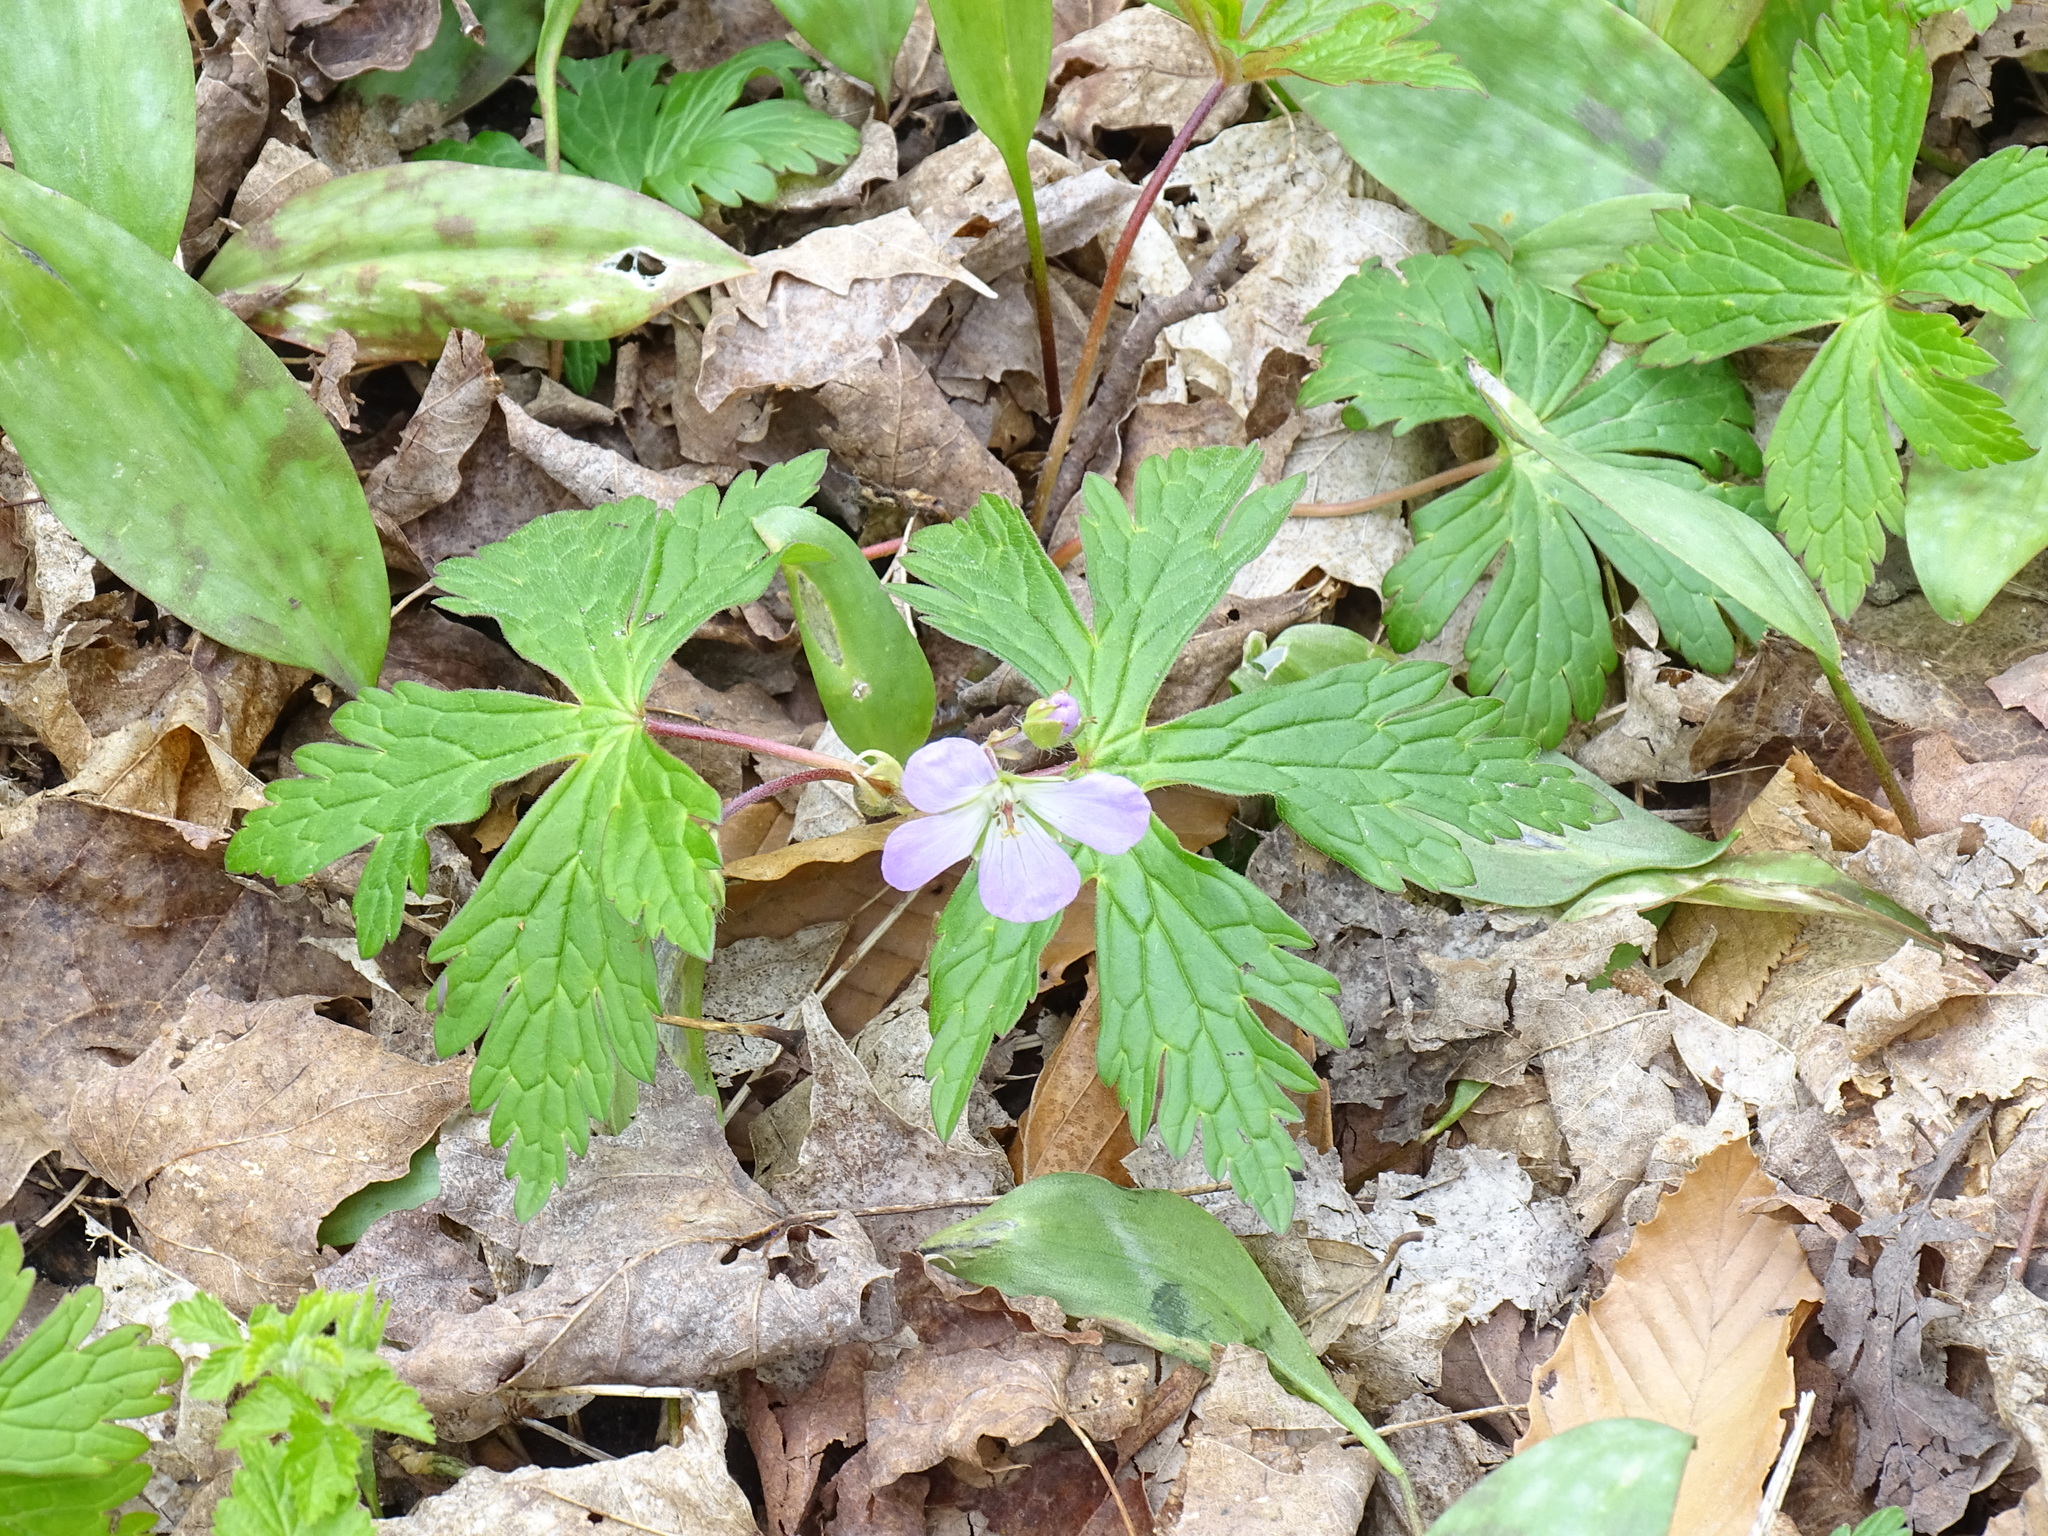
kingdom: Plantae
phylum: Tracheophyta
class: Magnoliopsida
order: Geraniales
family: Geraniaceae
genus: Geranium
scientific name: Geranium maculatum
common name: Spotted geranium
